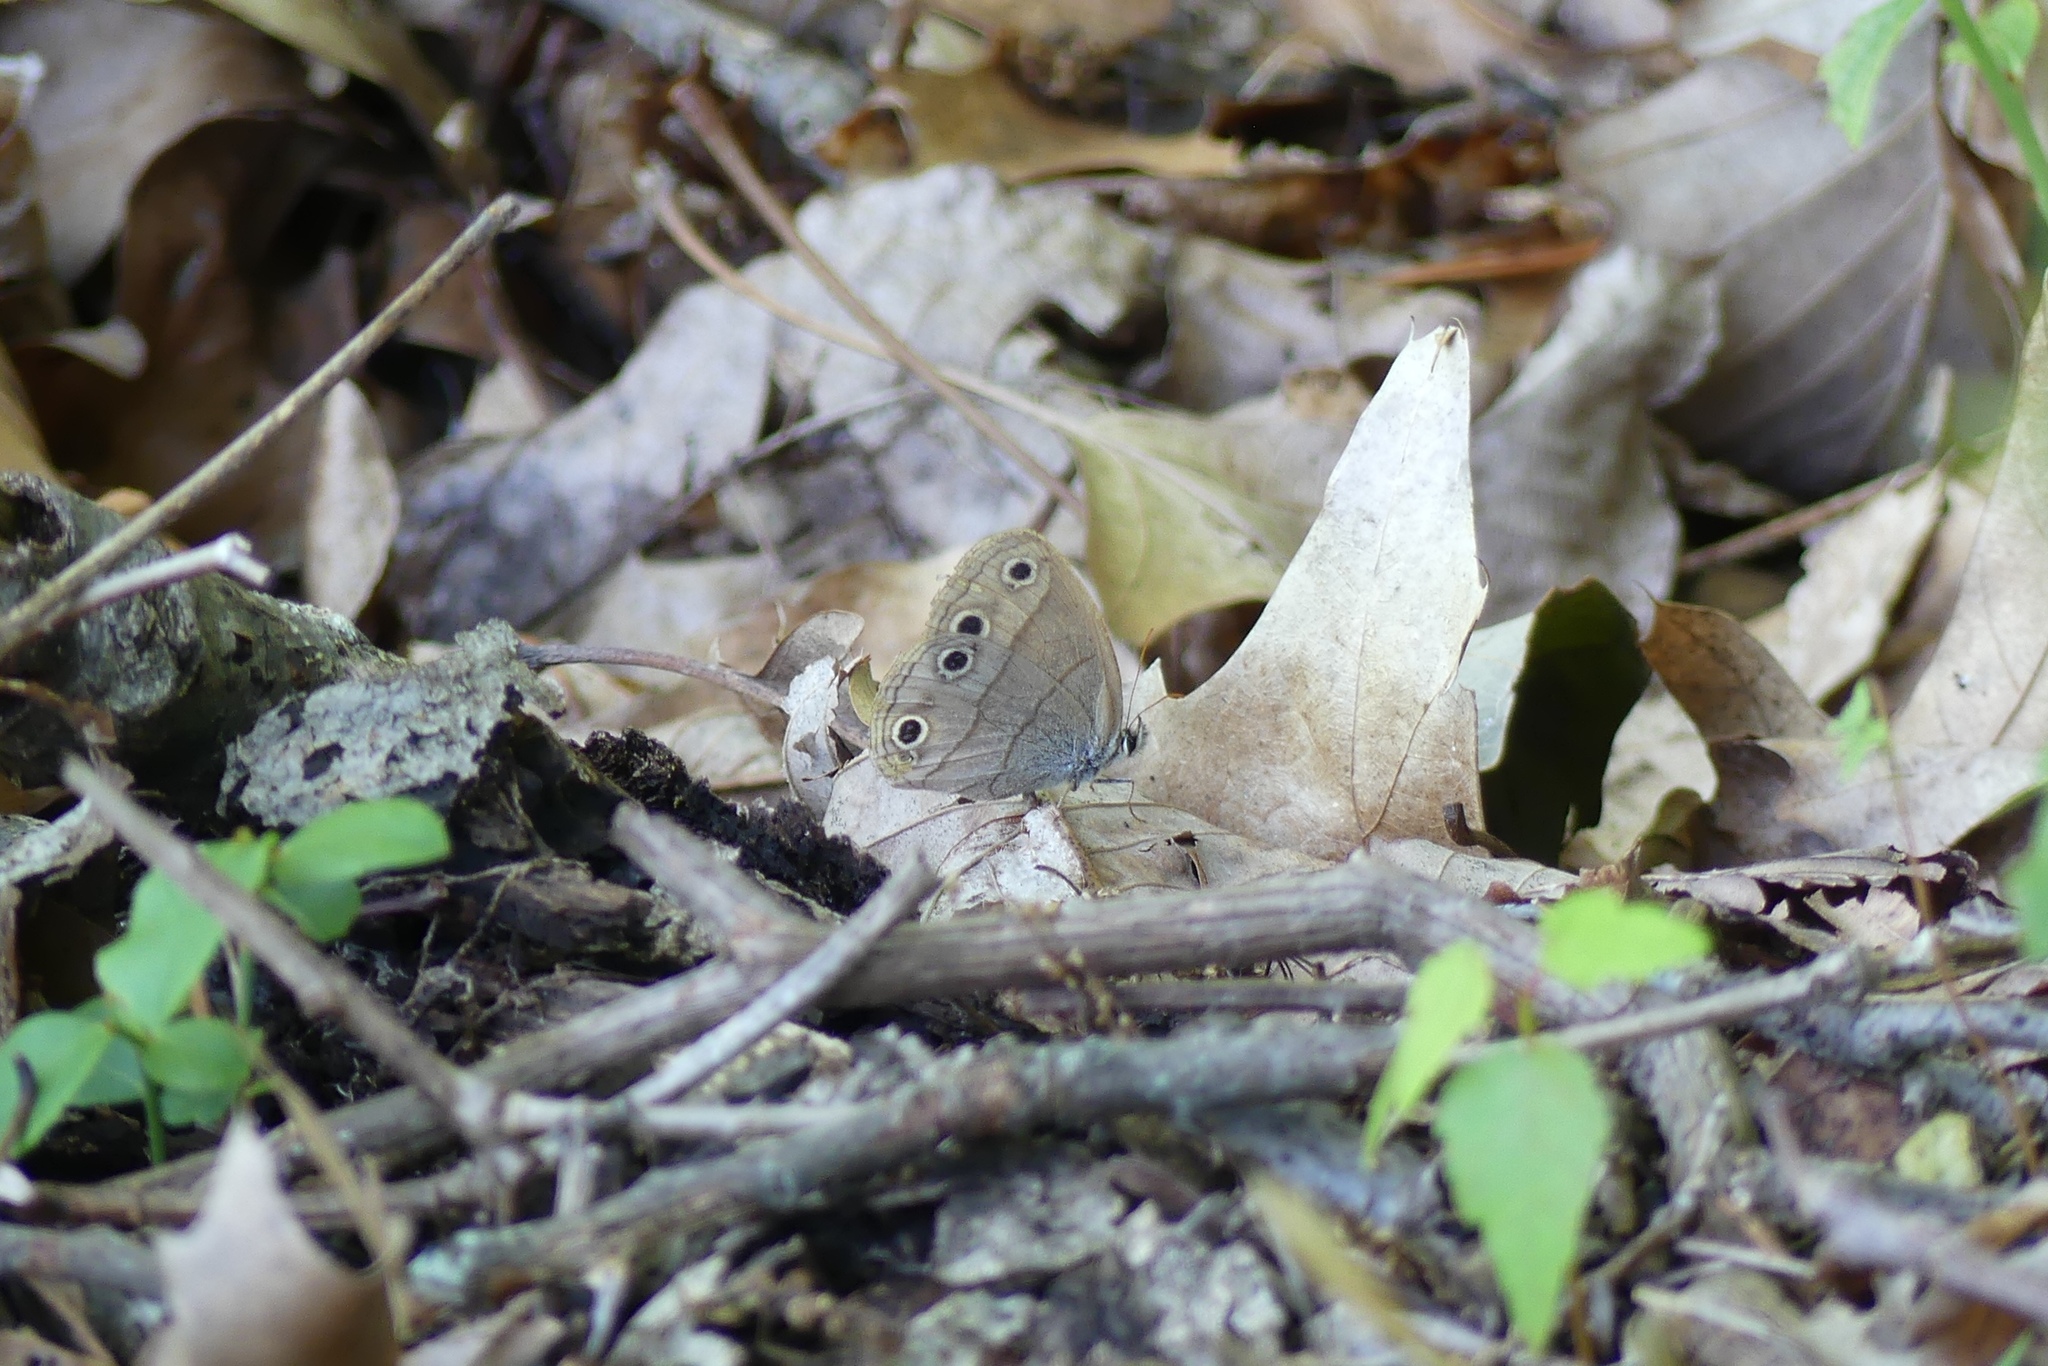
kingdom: Animalia
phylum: Arthropoda
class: Insecta
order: Lepidoptera
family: Nymphalidae
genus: Euptychia
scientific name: Euptychia cymela
